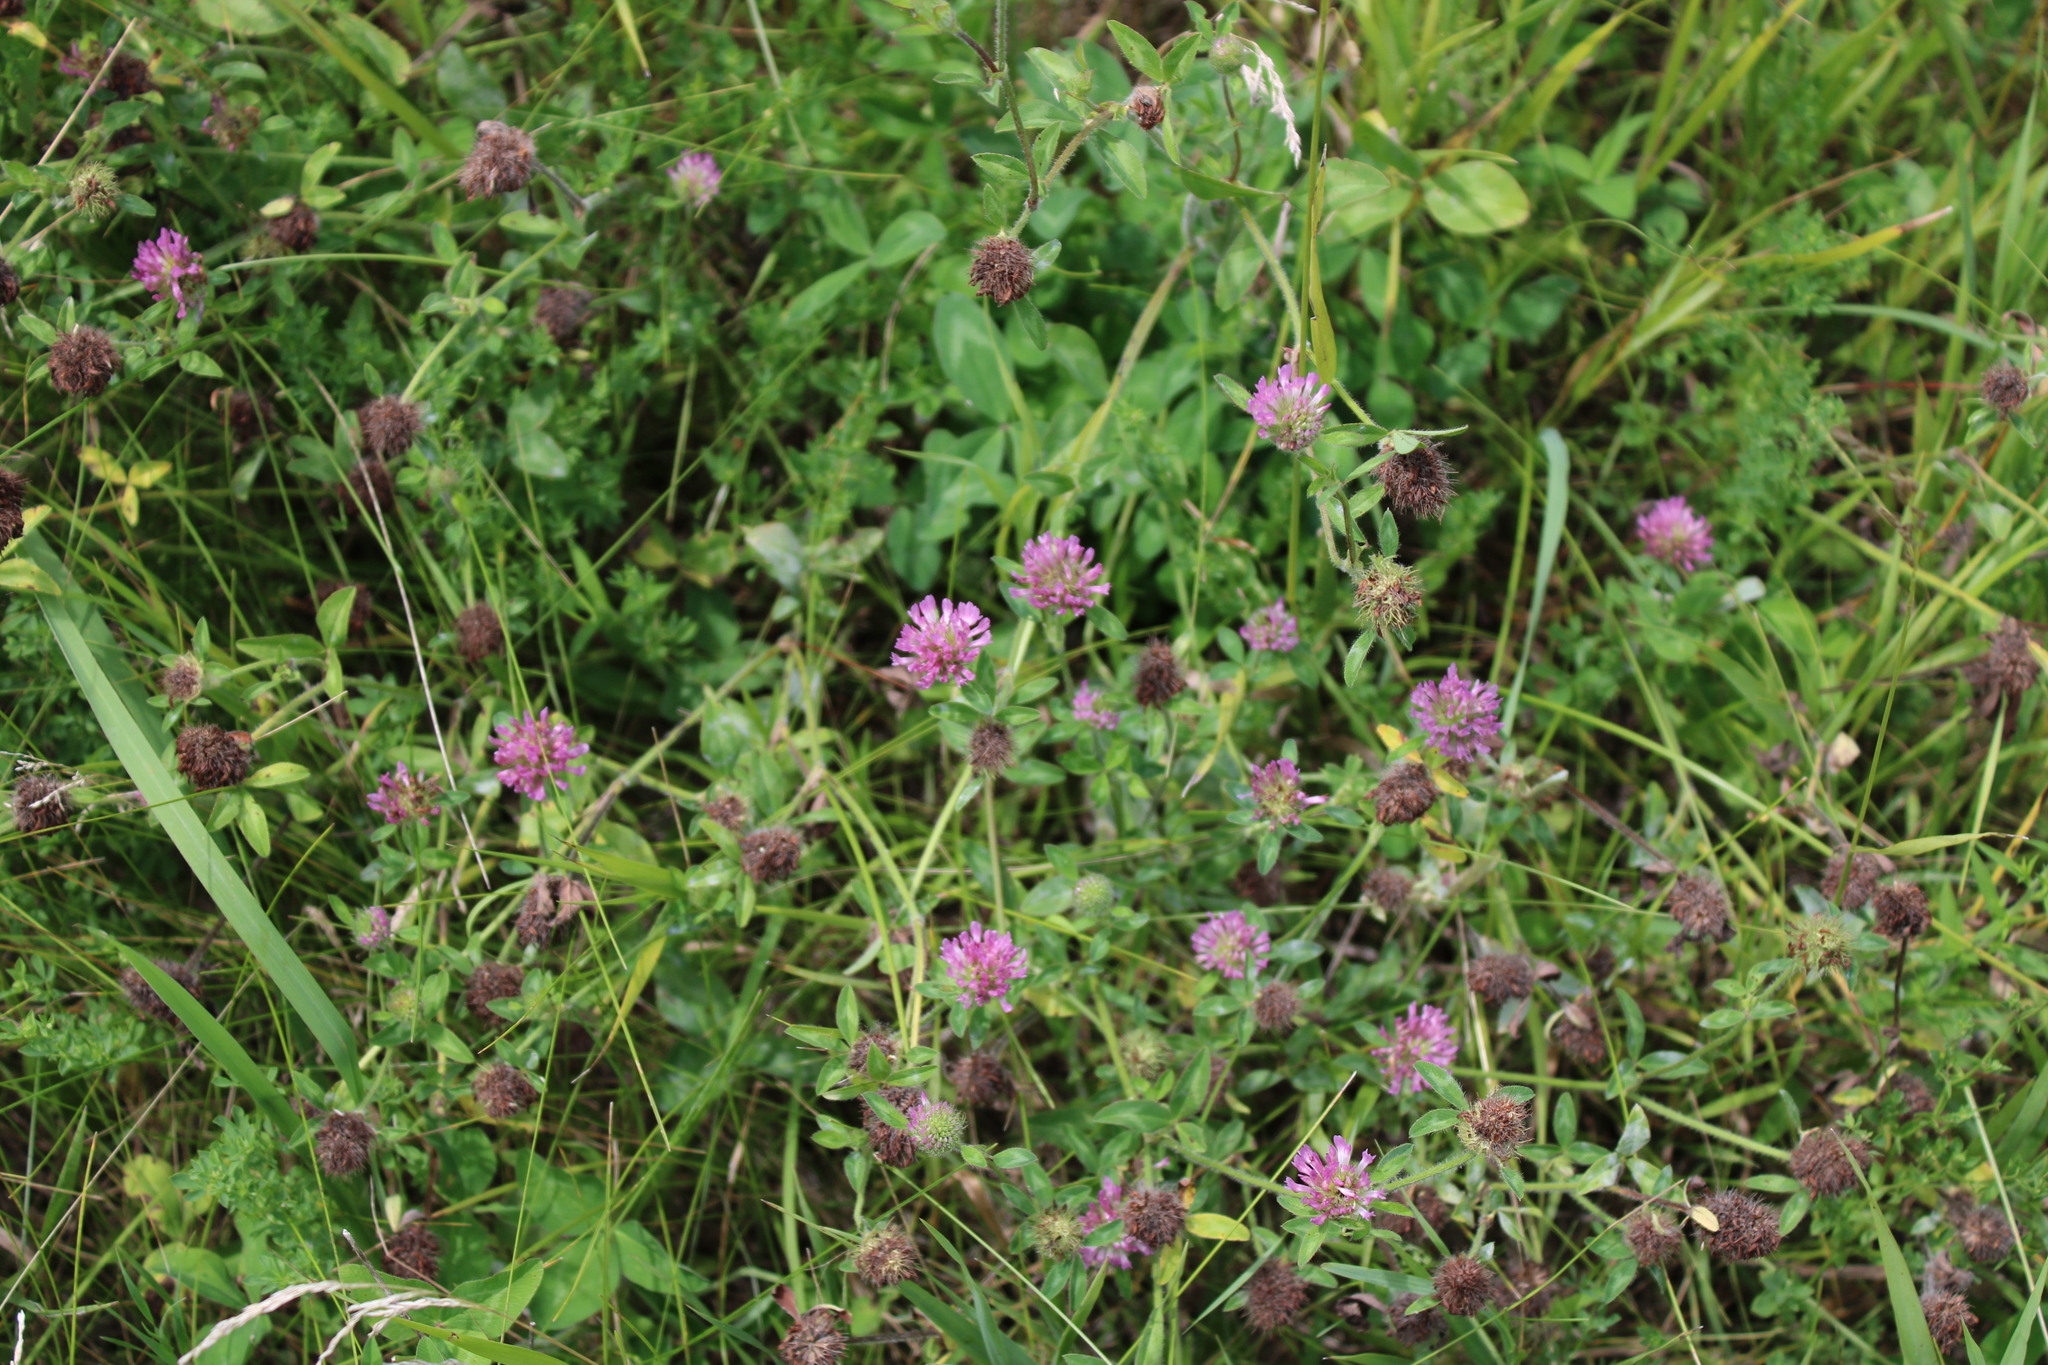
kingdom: Plantae
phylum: Tracheophyta
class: Magnoliopsida
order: Fabales
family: Fabaceae
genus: Trifolium
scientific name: Trifolium pratense
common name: Red clover
